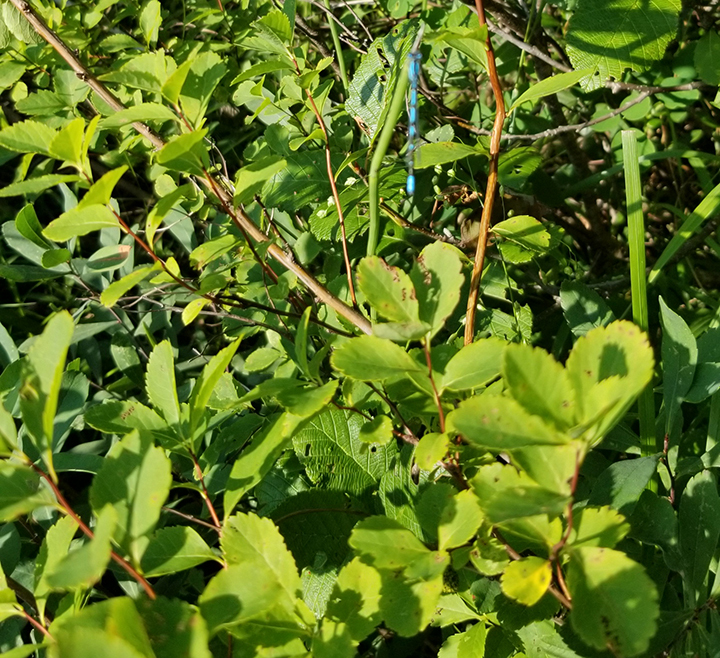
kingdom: Plantae
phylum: Tracheophyta
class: Magnoliopsida
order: Rosales
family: Rosaceae
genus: Spiraea
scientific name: Spiraea alba
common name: Pale bridewort
